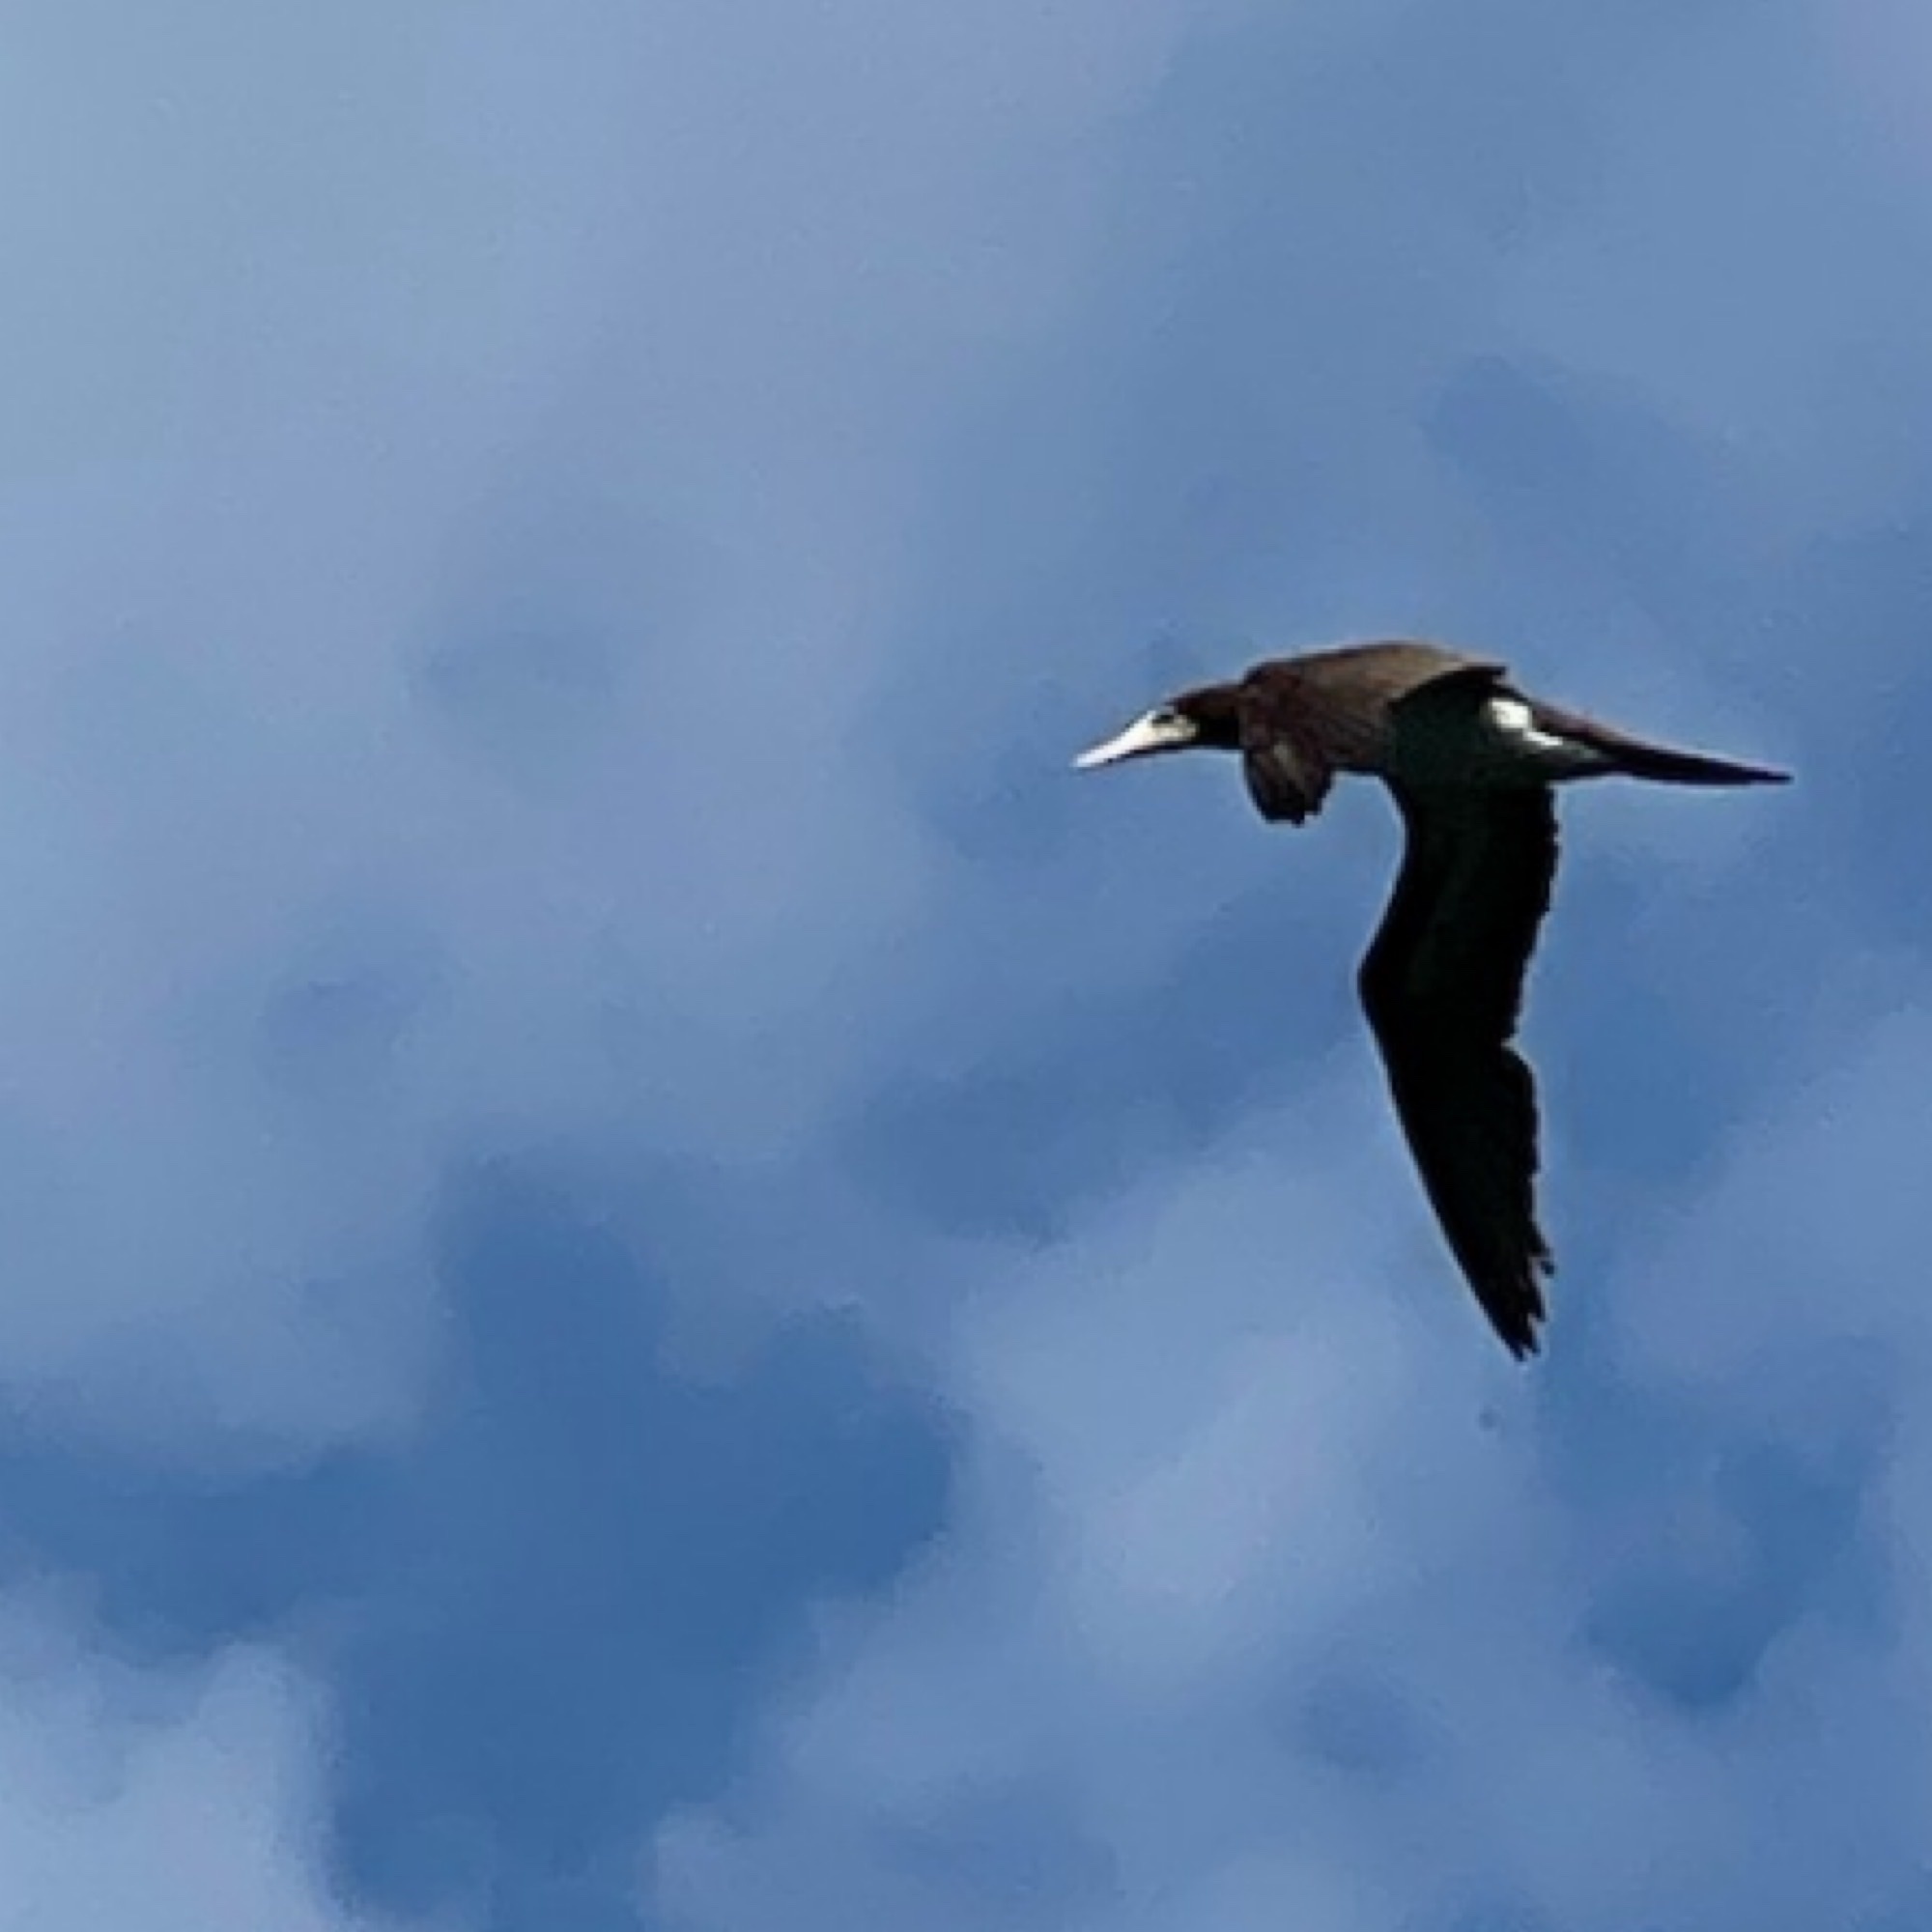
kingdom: Animalia
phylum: Chordata
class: Aves
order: Suliformes
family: Sulidae
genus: Sula
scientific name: Sula leucogaster
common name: Brown booby
